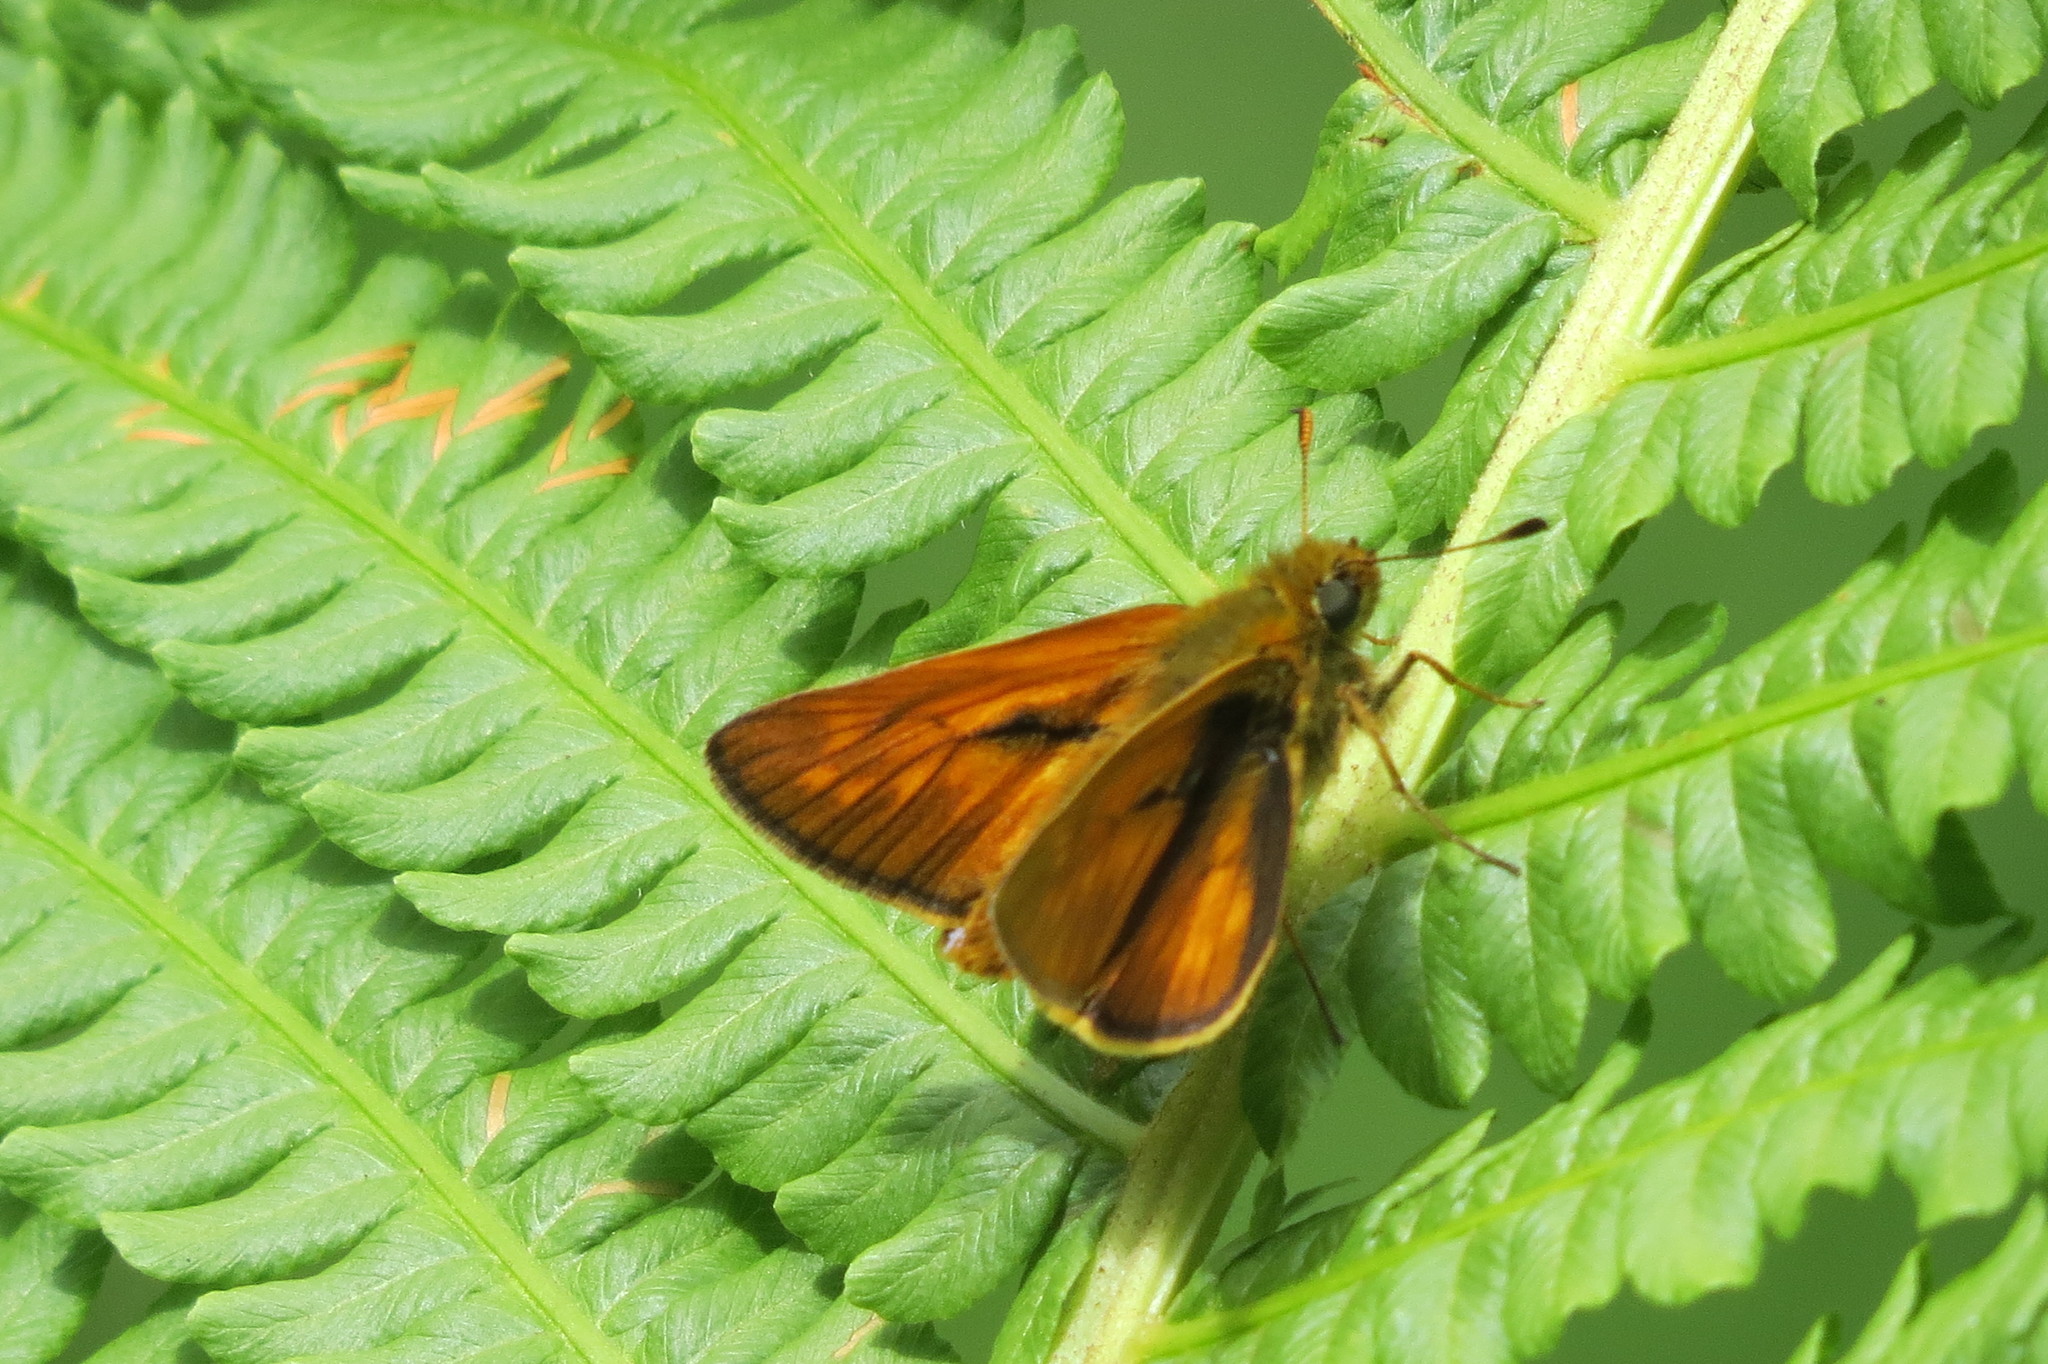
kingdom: Animalia
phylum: Arthropoda
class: Insecta
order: Lepidoptera
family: Hesperiidae
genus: Ochlodes
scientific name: Ochlodes venata
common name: Large skipper
